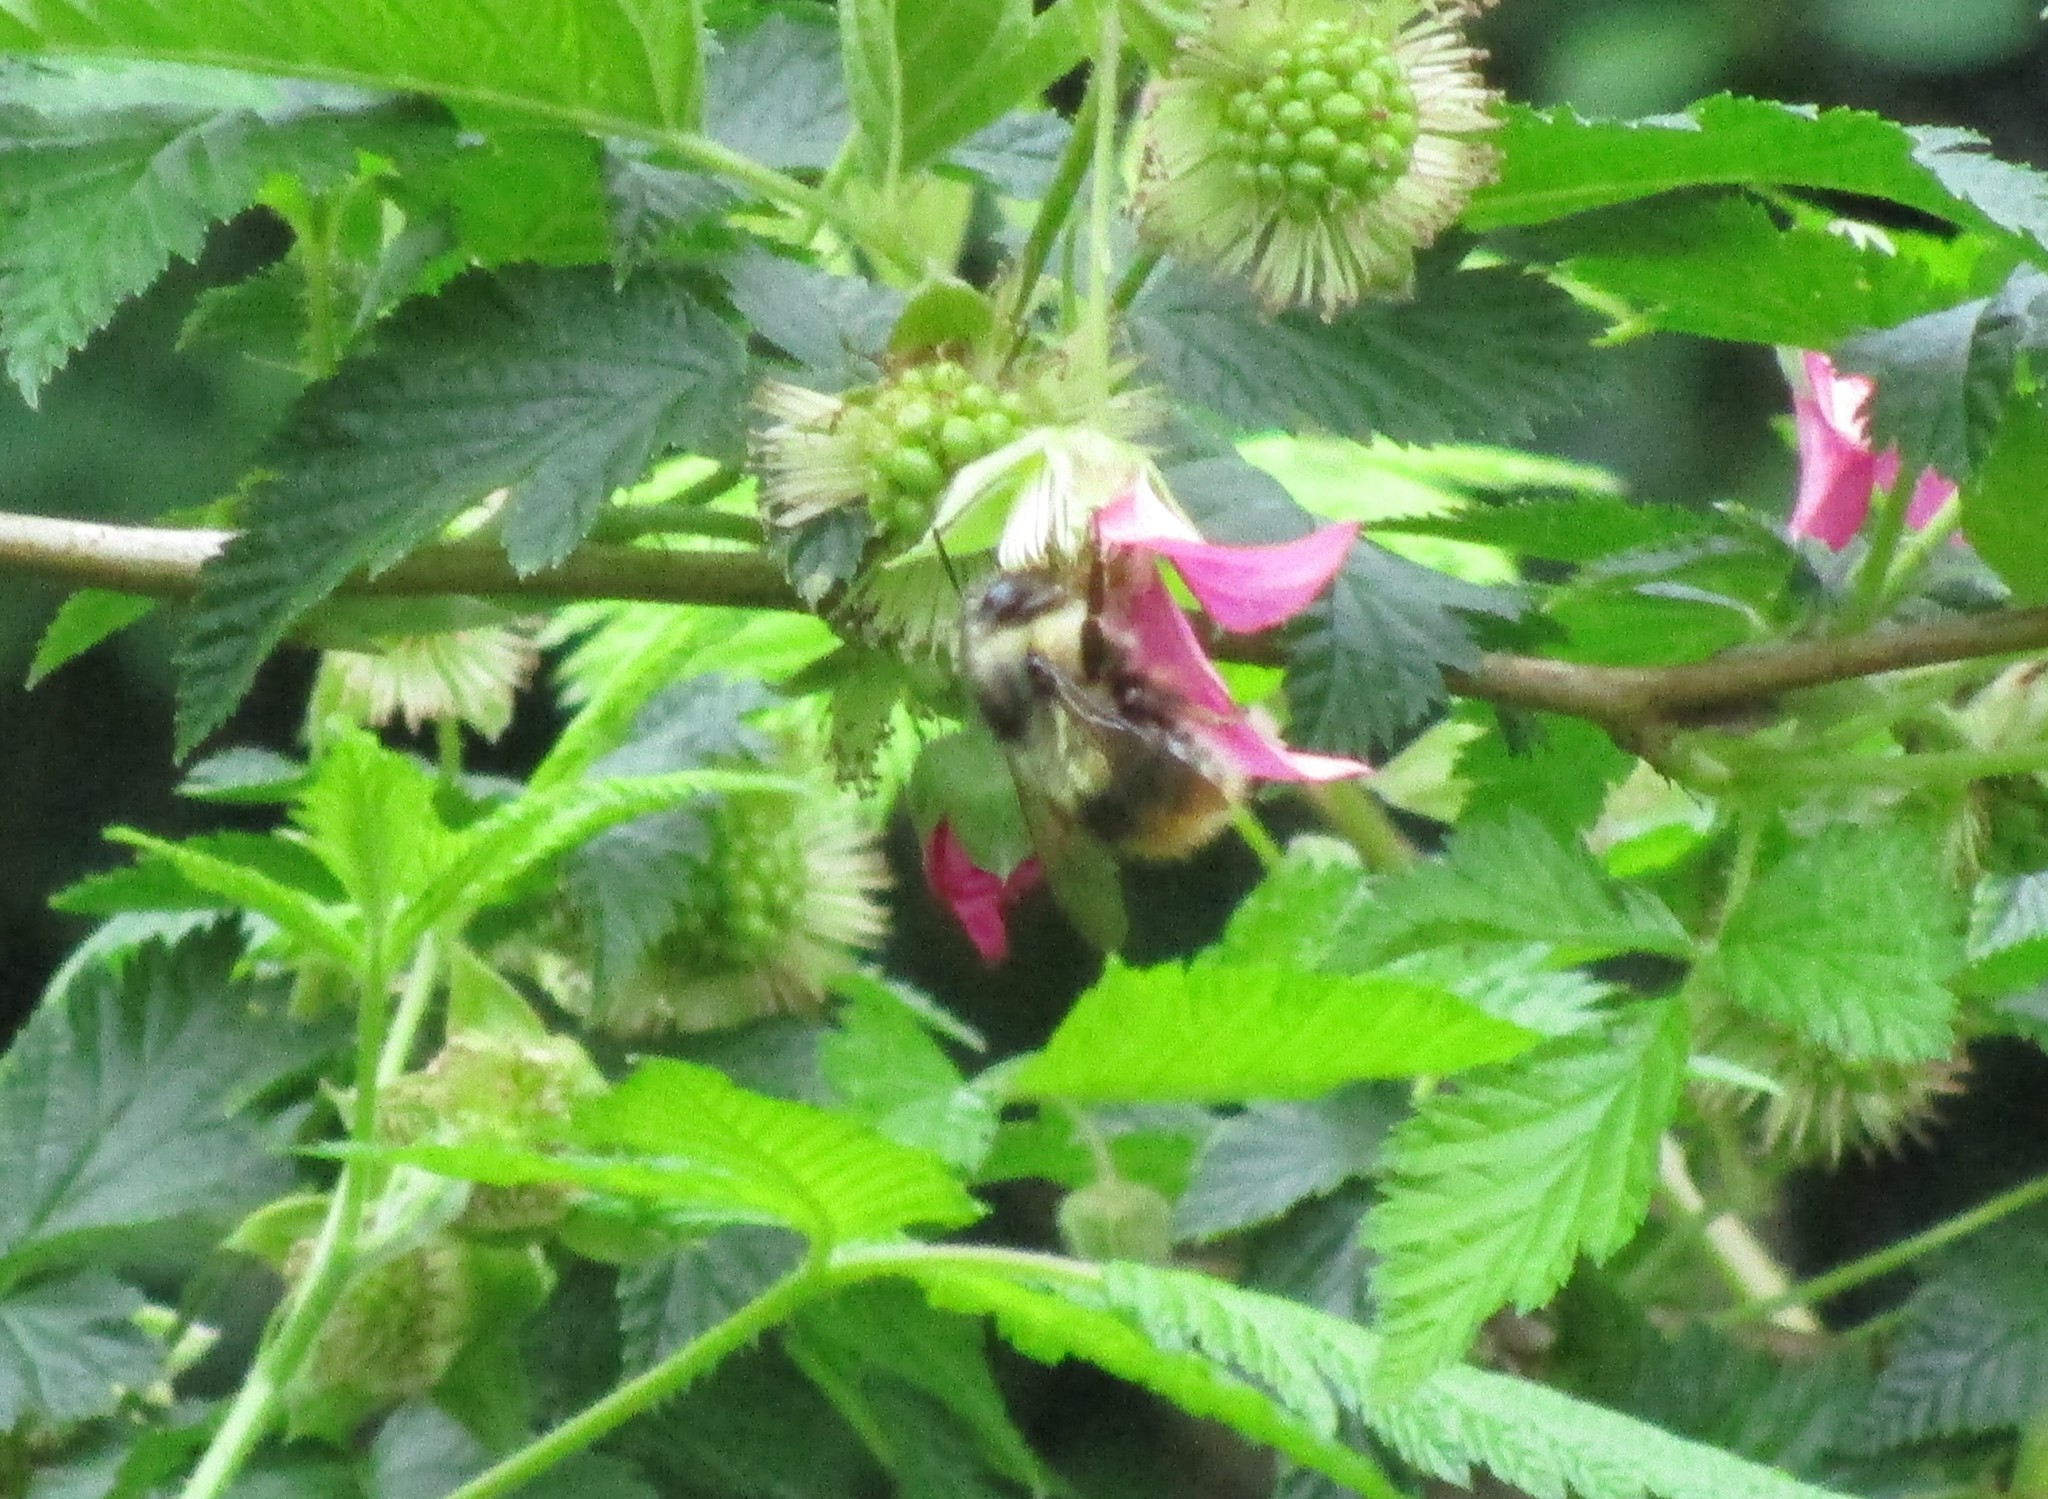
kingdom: Animalia
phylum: Arthropoda
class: Insecta
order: Hymenoptera
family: Apidae
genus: Bombus
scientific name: Bombus mixtus
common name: Fuzzy-horned bumble bee
